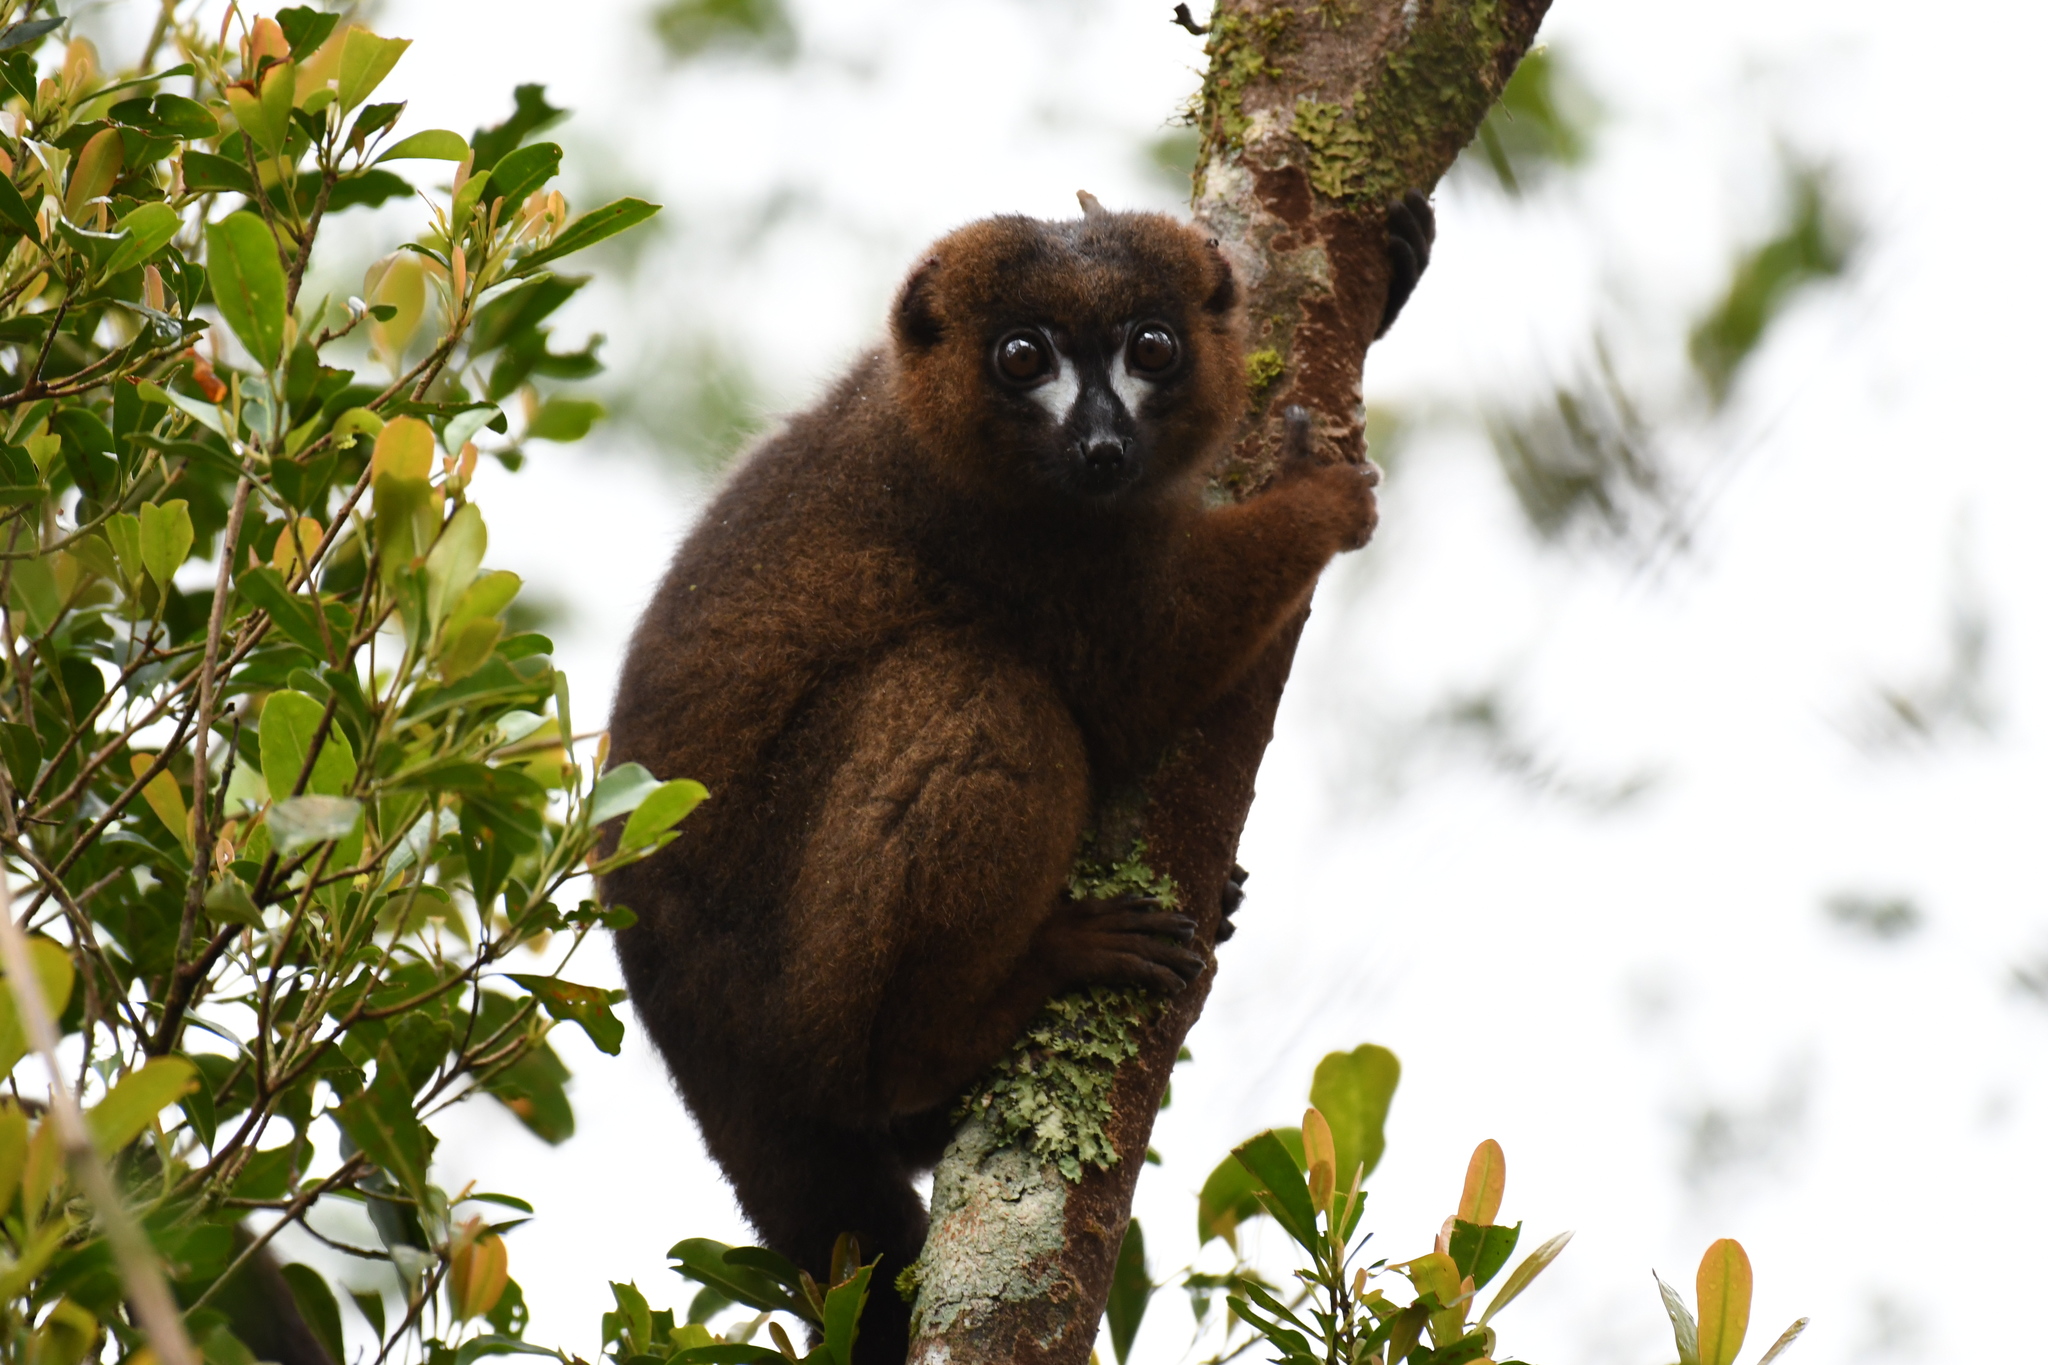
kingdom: Animalia
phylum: Chordata
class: Mammalia
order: Primates
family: Lemuridae
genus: Eulemur
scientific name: Eulemur rubriventer
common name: Red-bellied lemur
